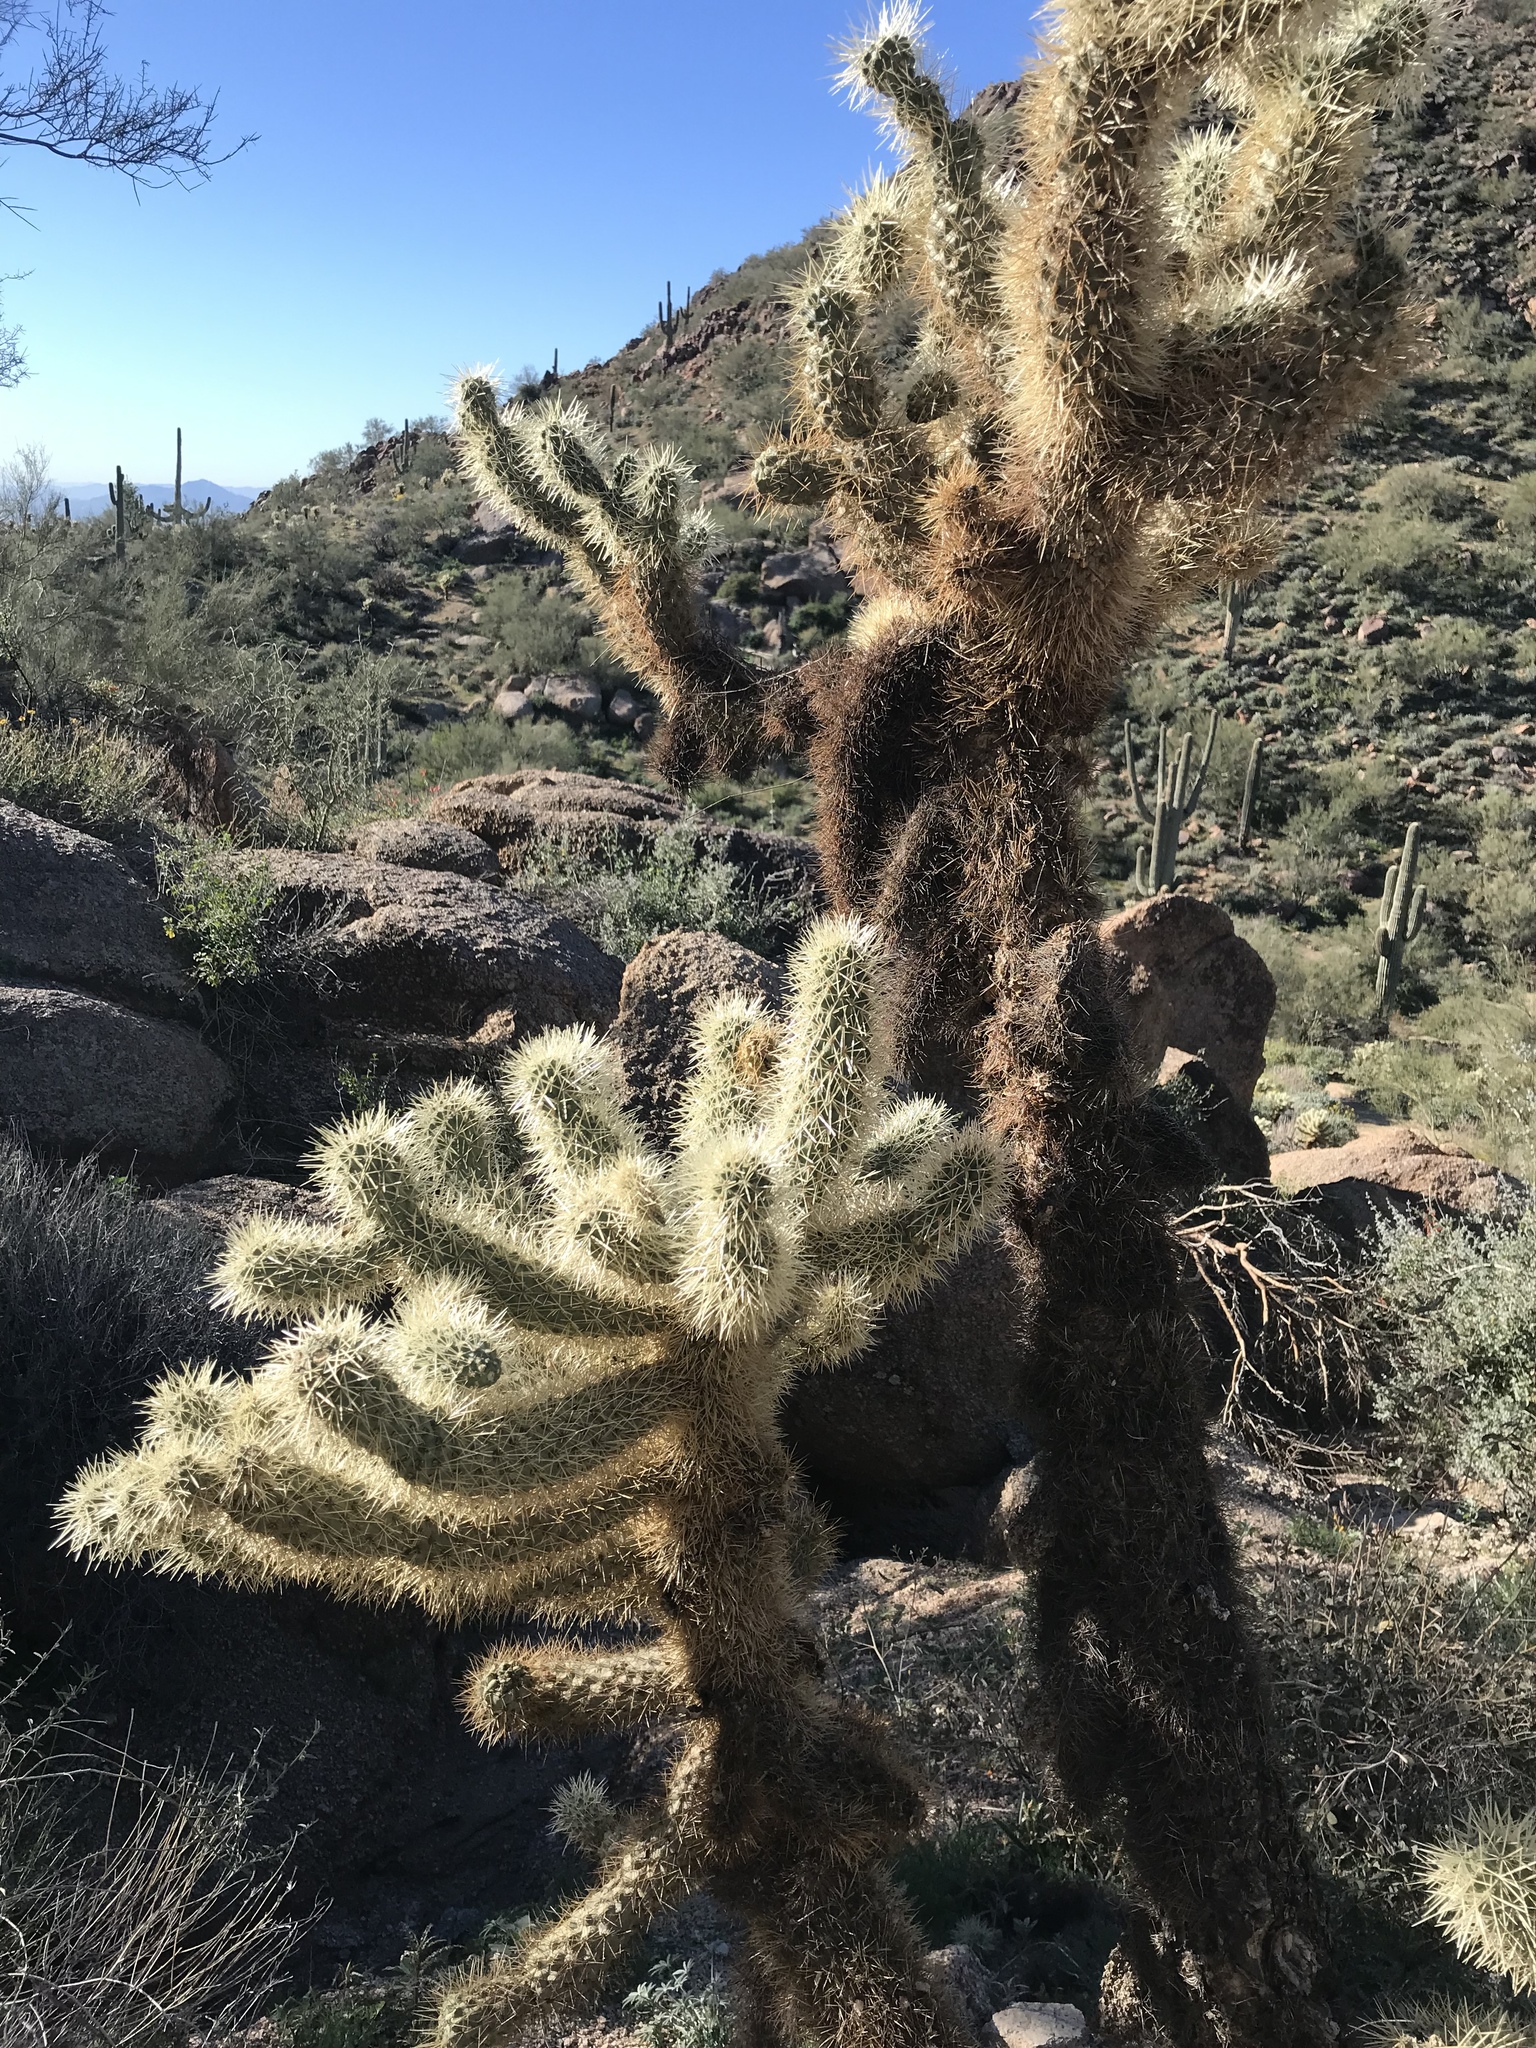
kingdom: Plantae
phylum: Tracheophyta
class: Magnoliopsida
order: Caryophyllales
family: Cactaceae
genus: Cylindropuntia
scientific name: Cylindropuntia fosbergii
